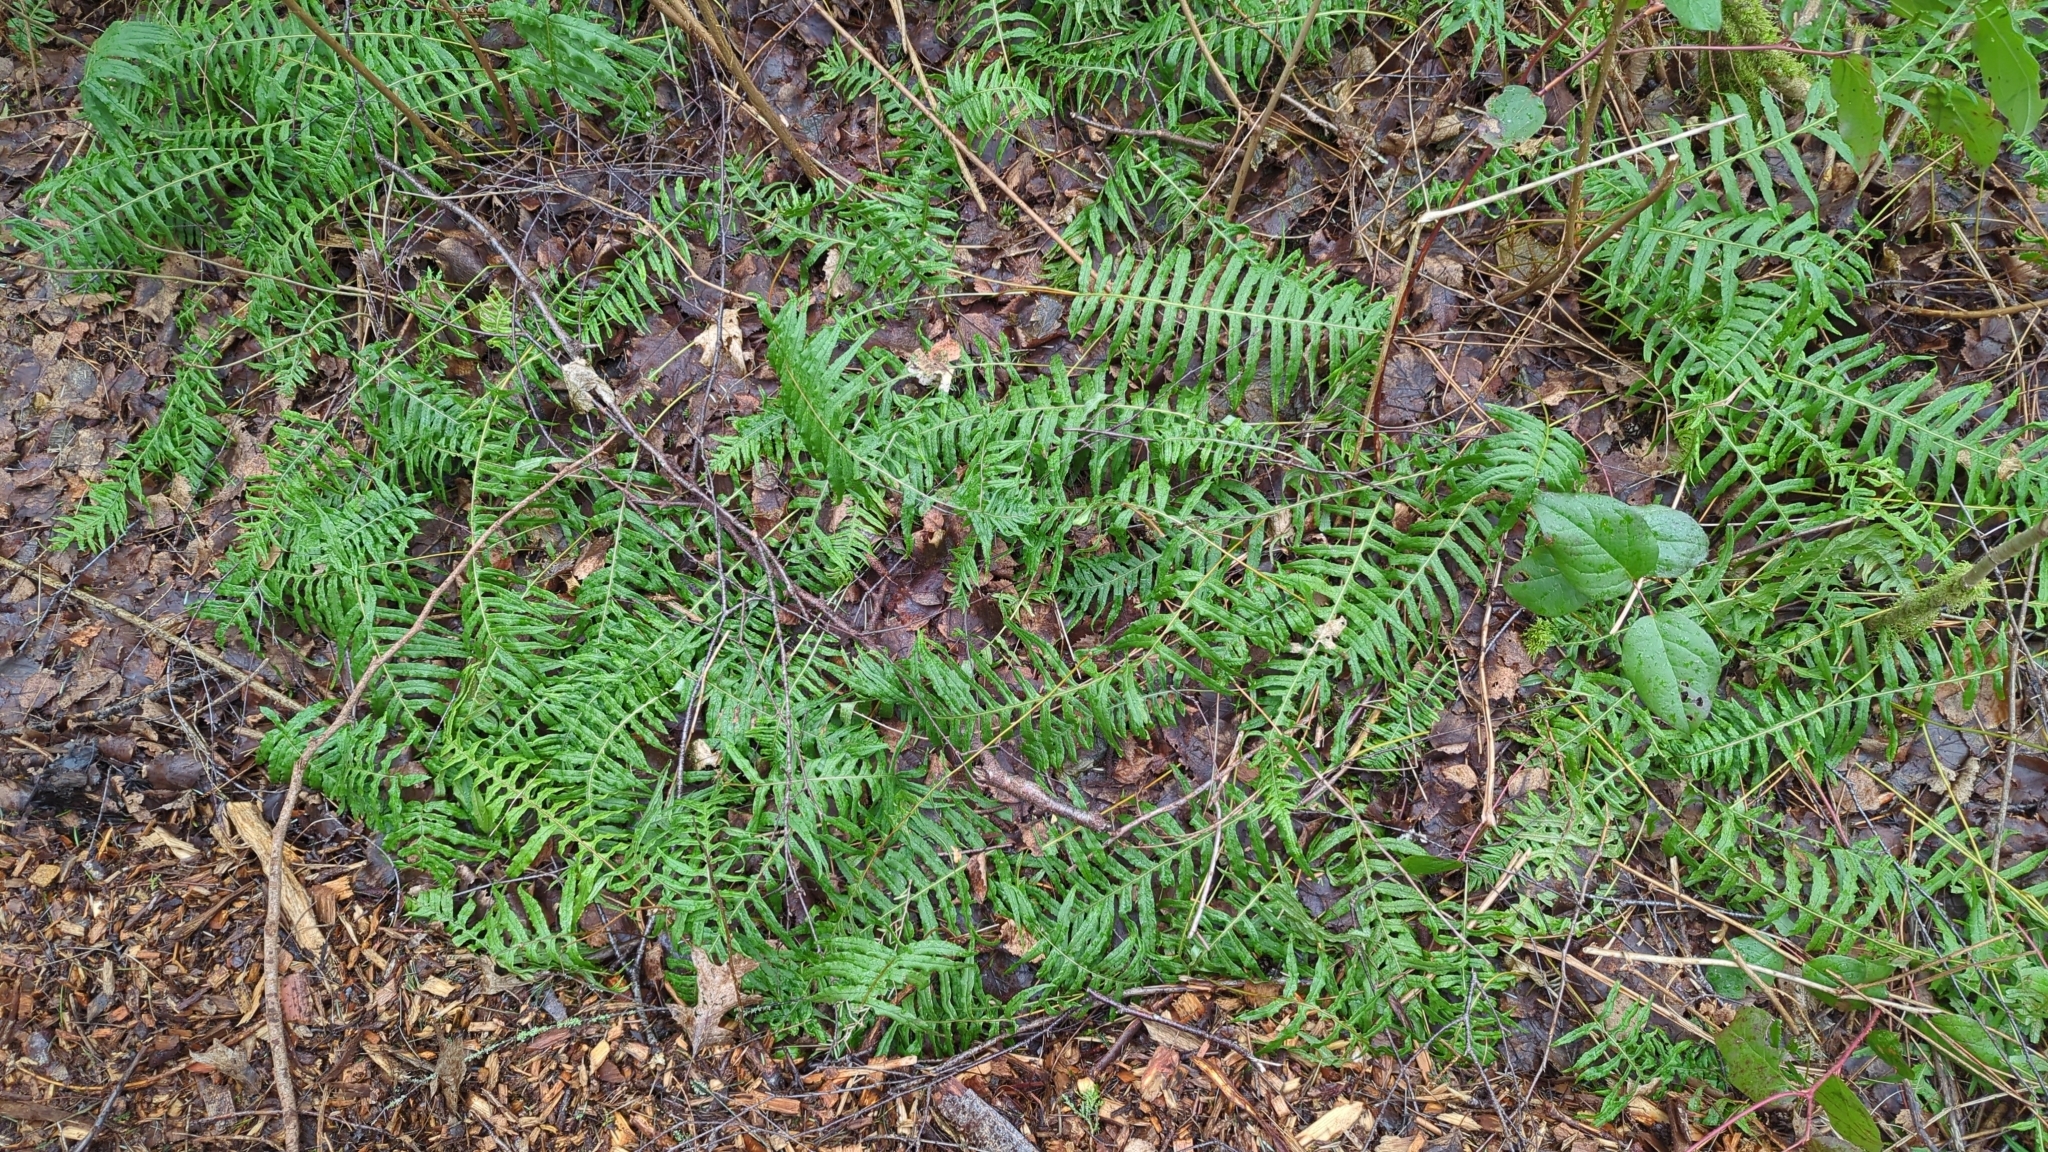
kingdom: Plantae
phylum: Tracheophyta
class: Polypodiopsida
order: Polypodiales
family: Polypodiaceae
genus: Polypodium
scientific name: Polypodium glycyrrhiza
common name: Licorice fern
